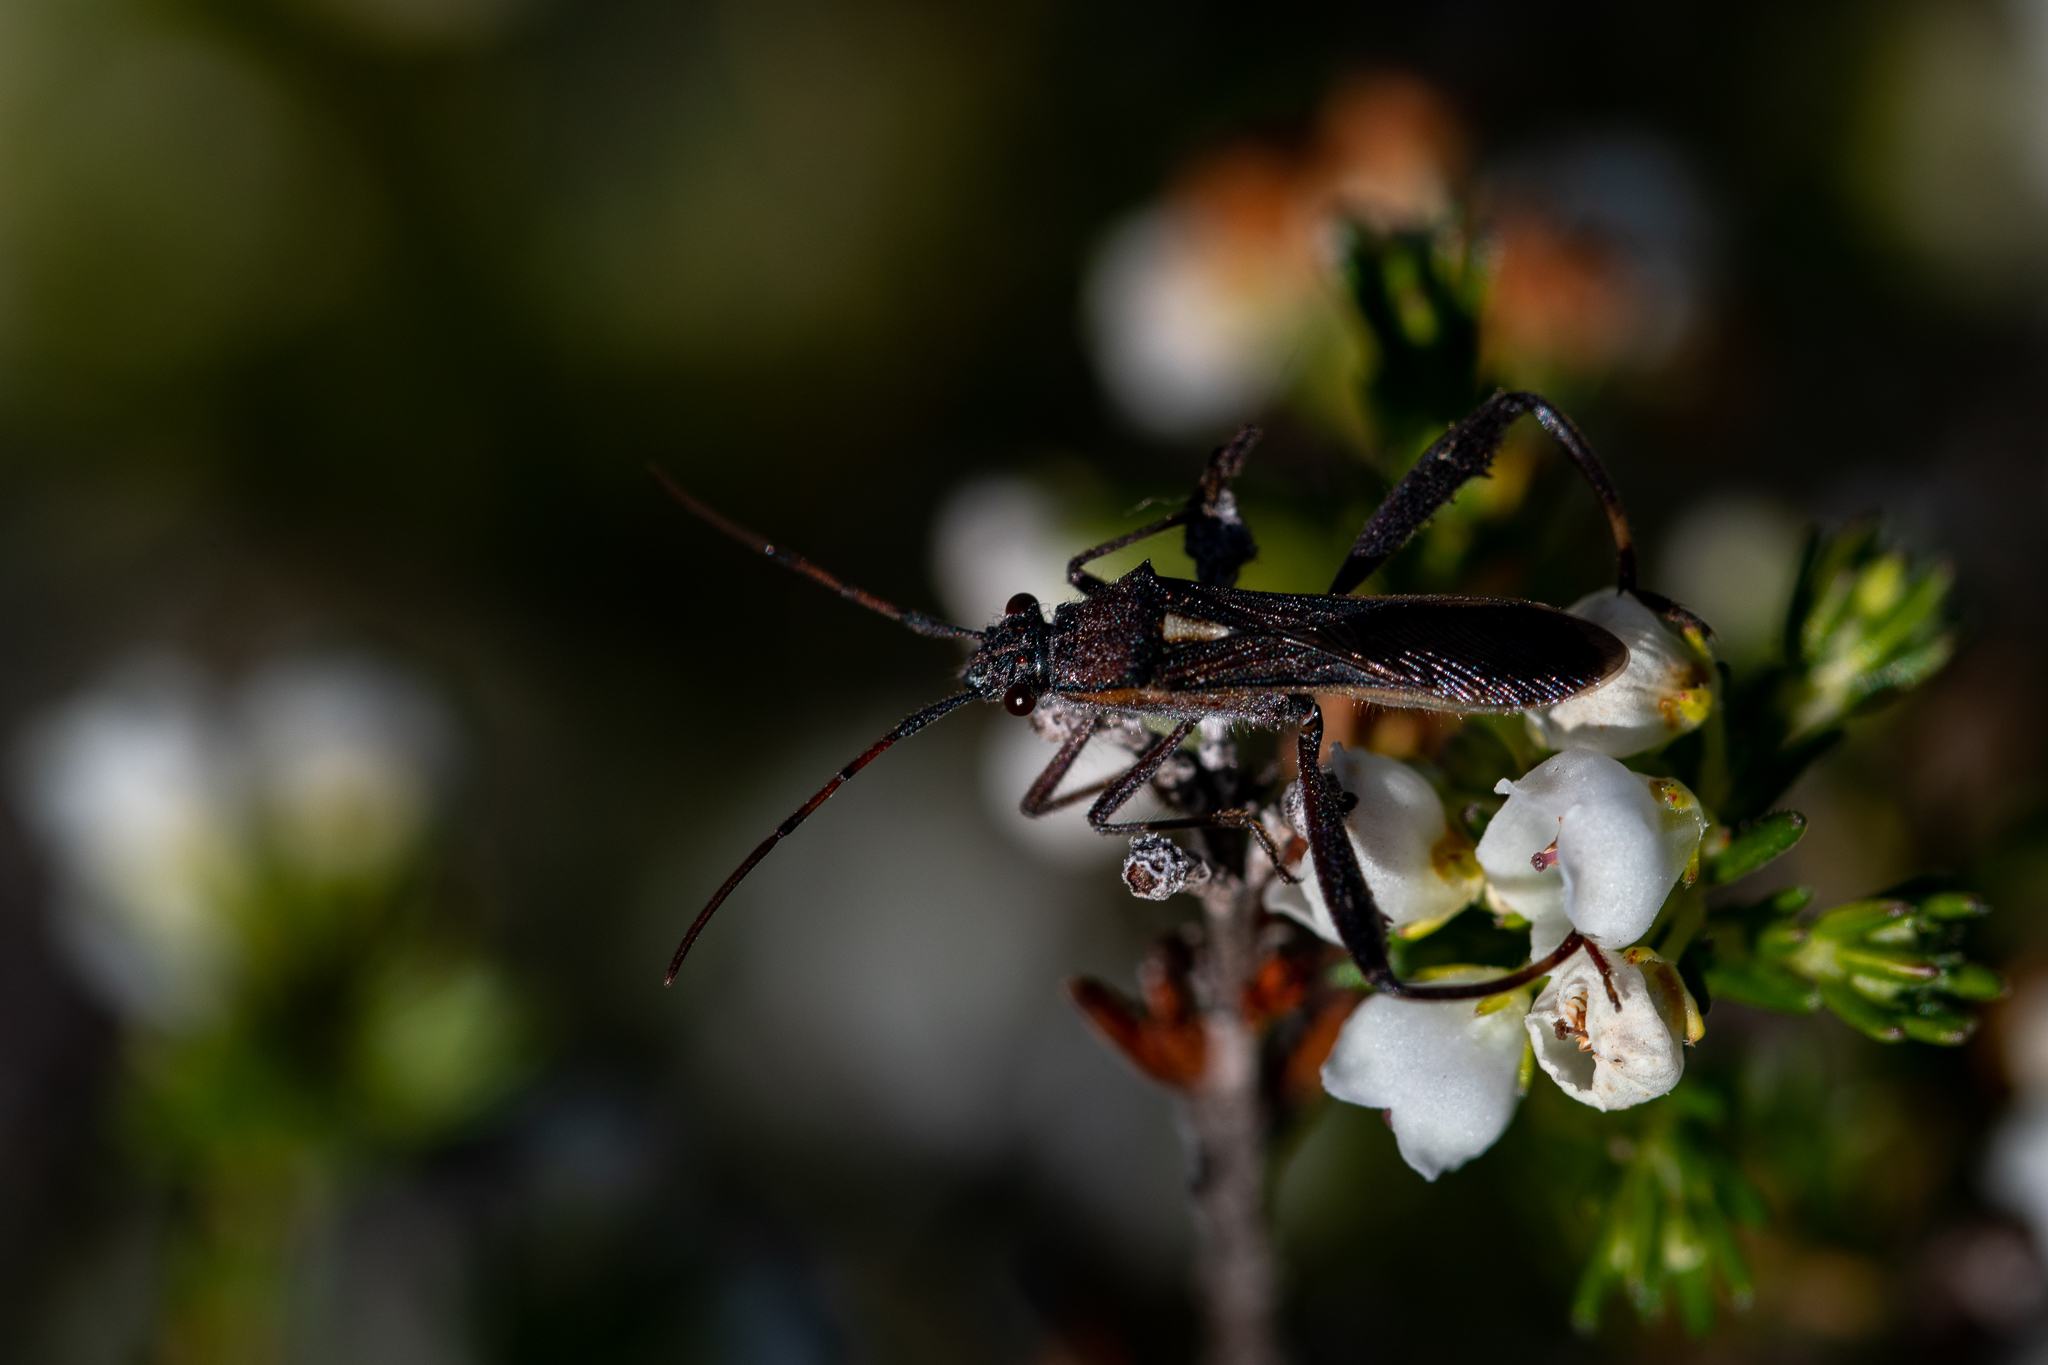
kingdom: Animalia
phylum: Arthropoda
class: Insecta
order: Hemiptera
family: Alydidae
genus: Mirperus
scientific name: Mirperus jaculus
